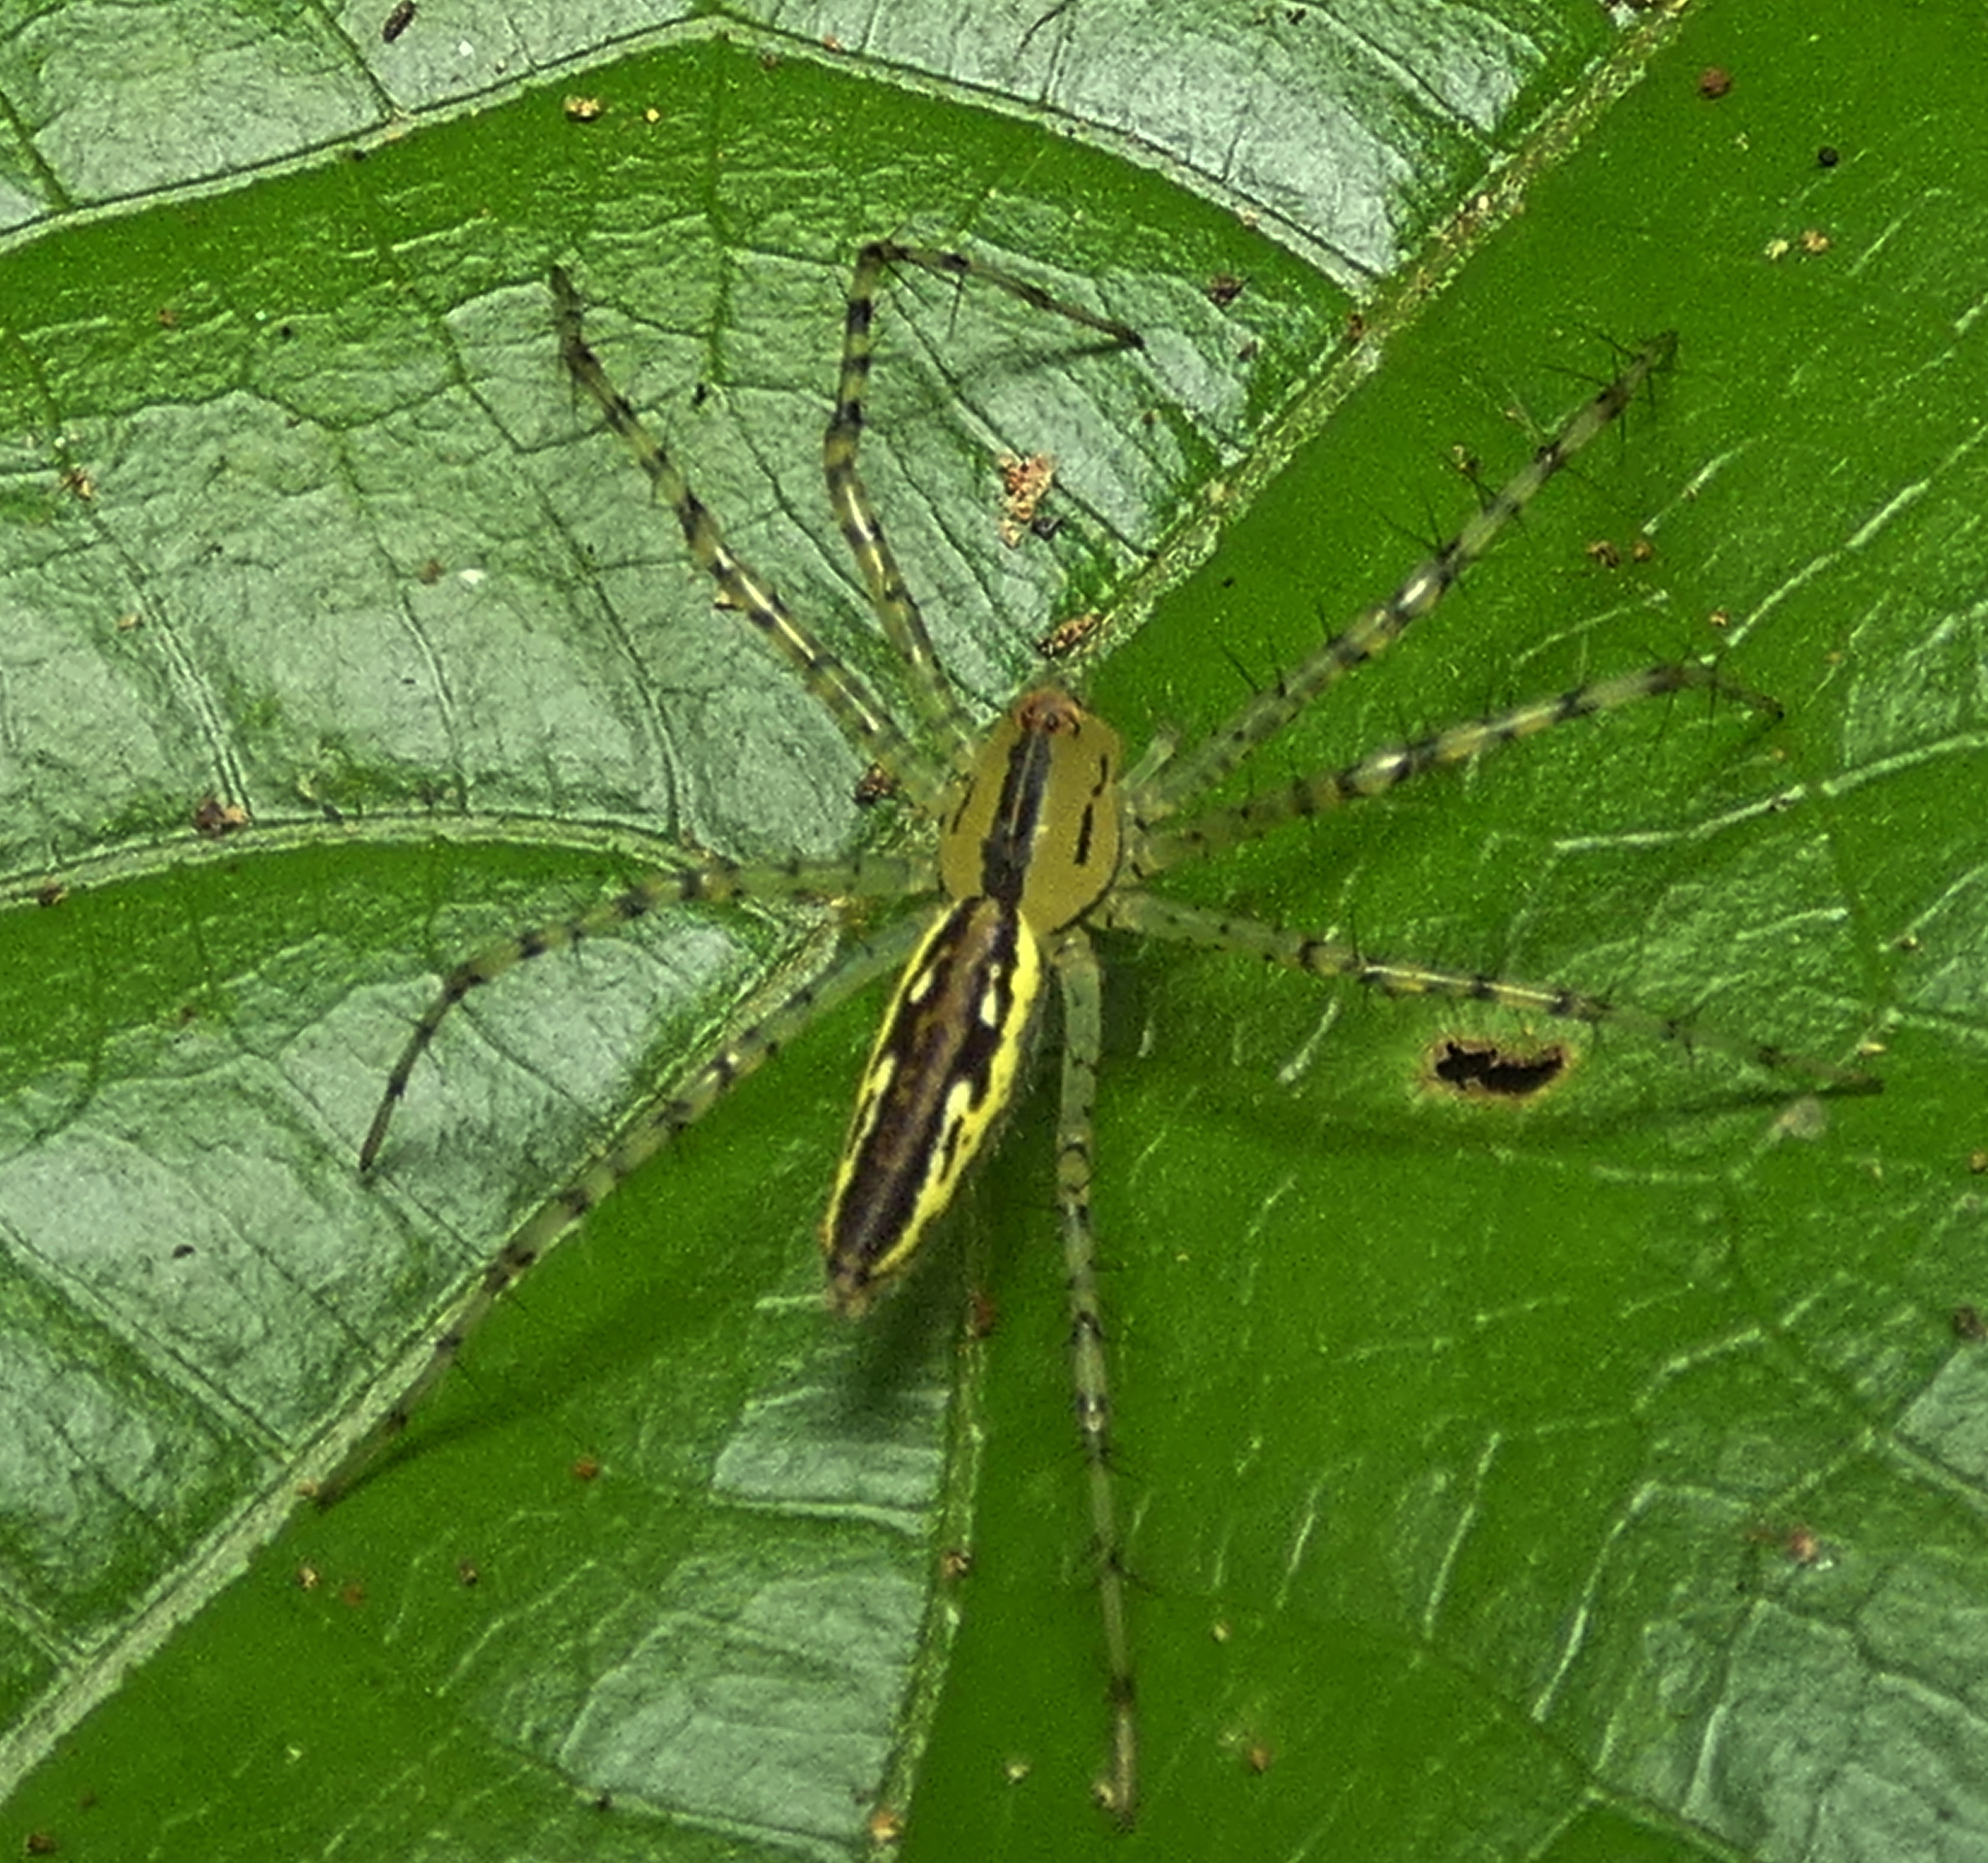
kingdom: Animalia
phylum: Arthropoda
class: Arachnida
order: Araneae
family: Oxyopidae
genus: Peucetia
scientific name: Peucetia rubrolineata
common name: Lynx spiders
